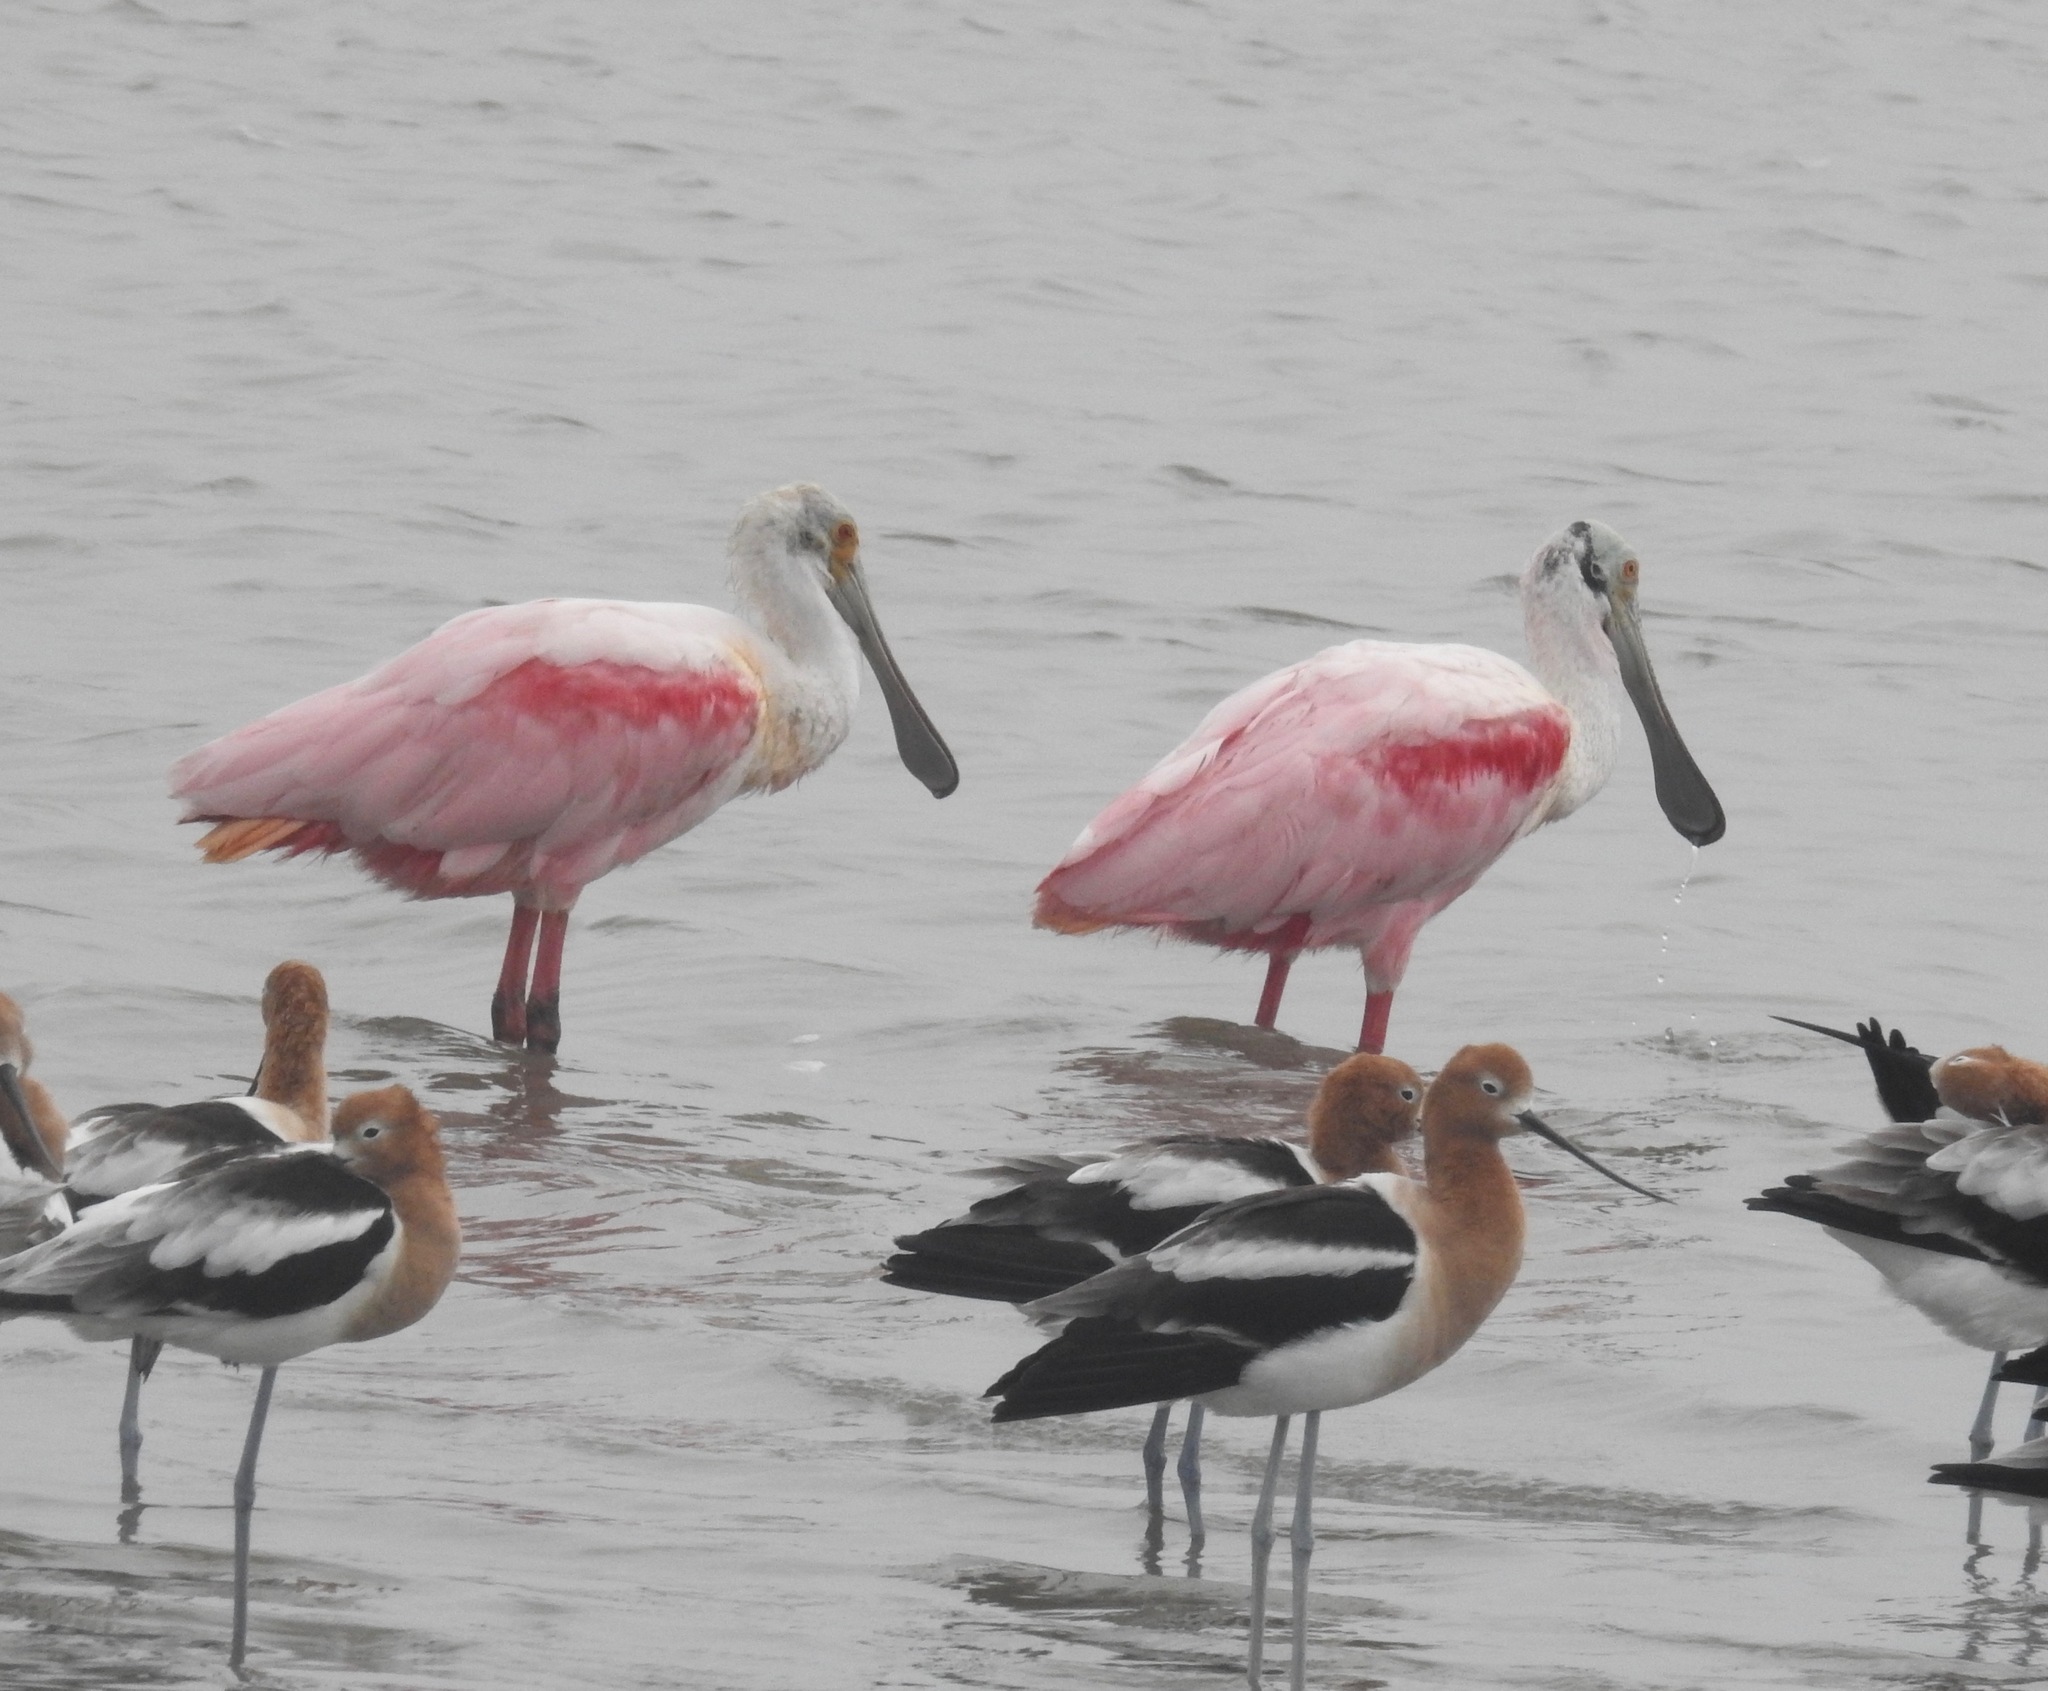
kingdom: Animalia
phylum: Chordata
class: Aves
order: Pelecaniformes
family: Threskiornithidae
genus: Platalea
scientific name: Platalea ajaja
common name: Roseate spoonbill
